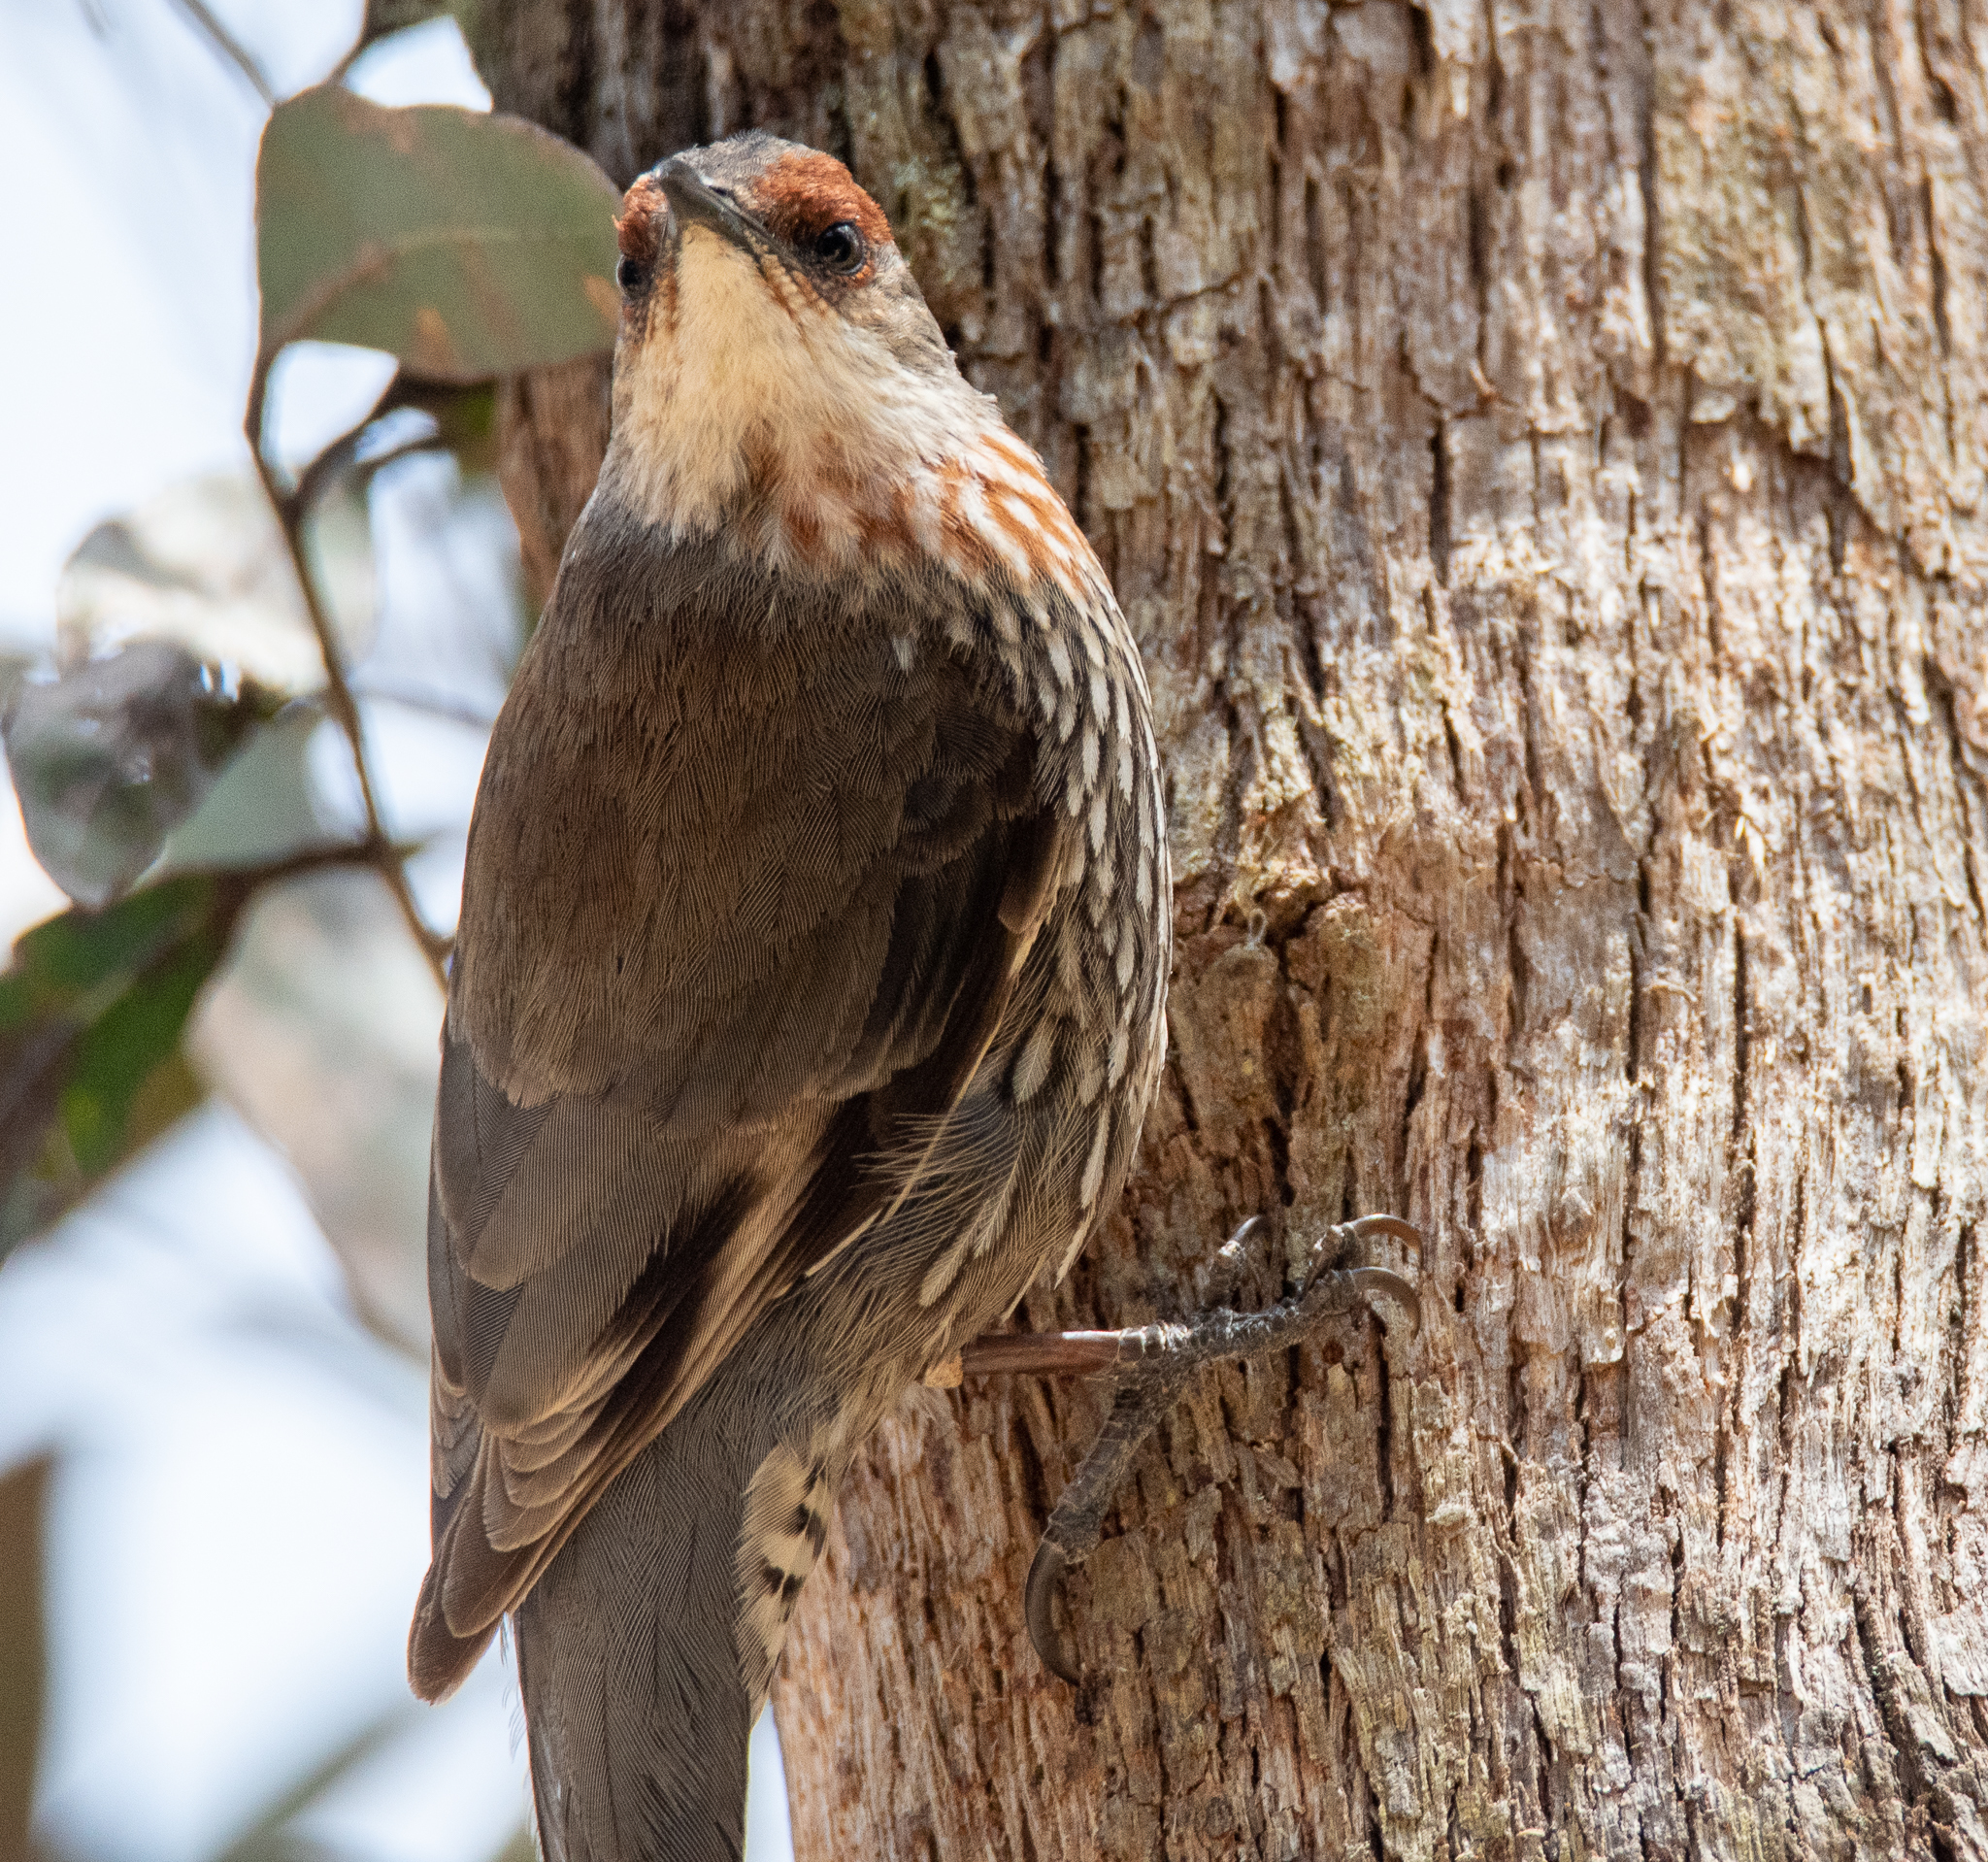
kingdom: Animalia
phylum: Chordata
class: Aves
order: Passeriformes
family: Climacteridae
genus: Climacteris
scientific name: Climacteris erythrops
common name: Red-browed treecreeper
